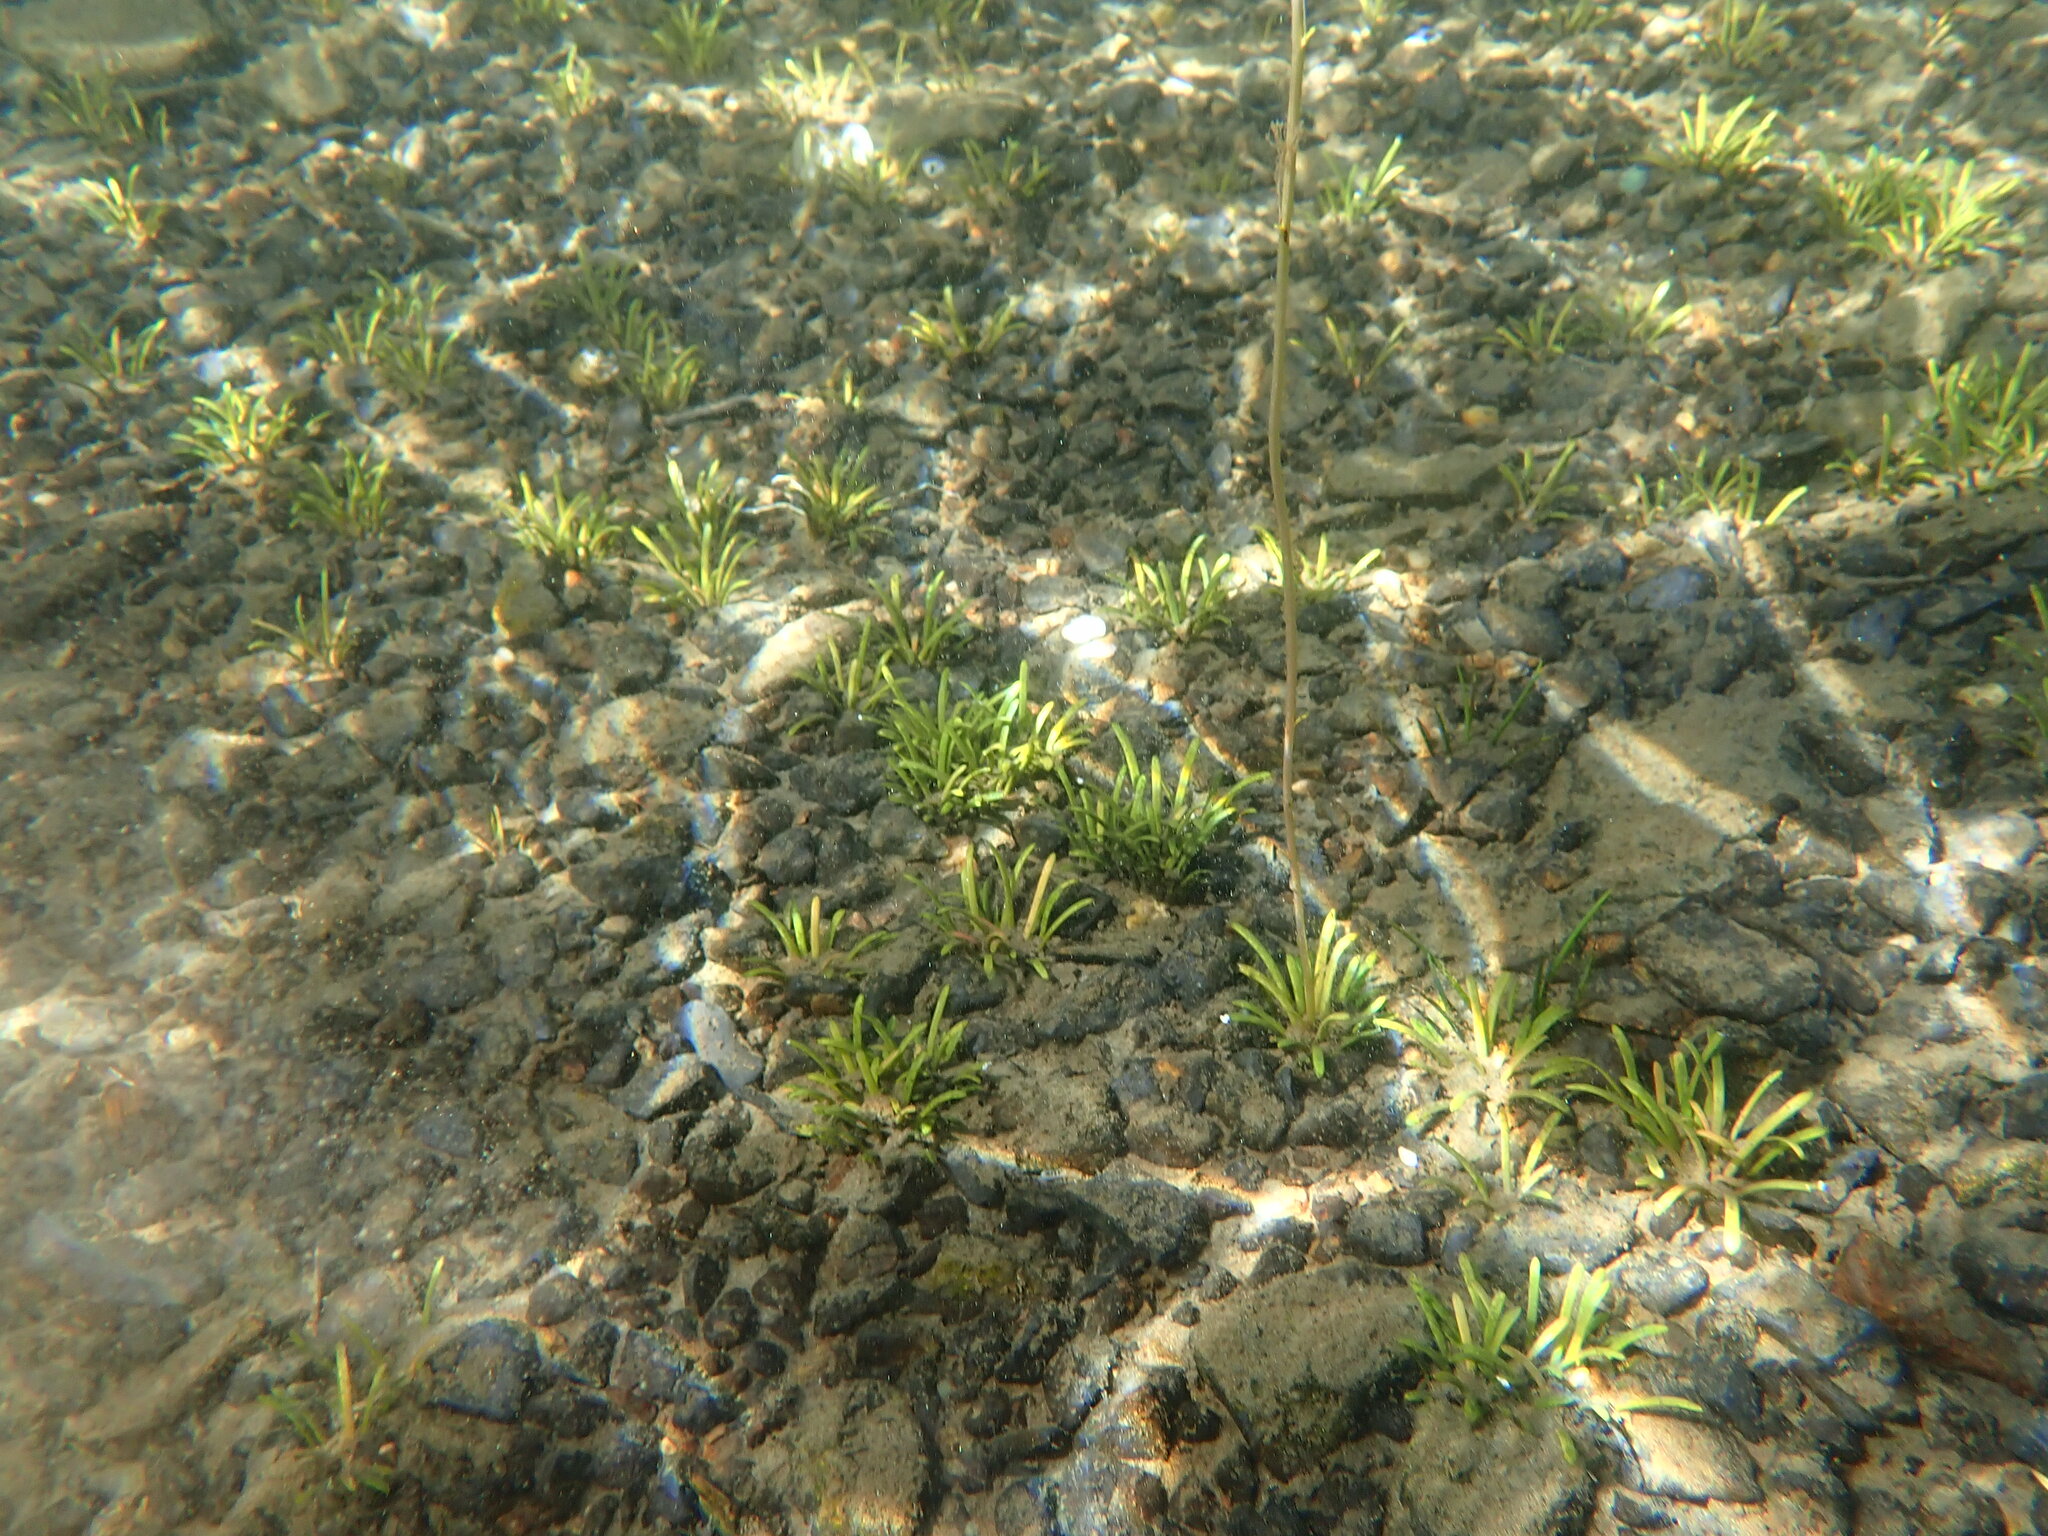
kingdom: Plantae
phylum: Tracheophyta
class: Magnoliopsida
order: Asterales
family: Campanulaceae
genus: Lobelia
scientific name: Lobelia dortmanna
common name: Water lobelia
